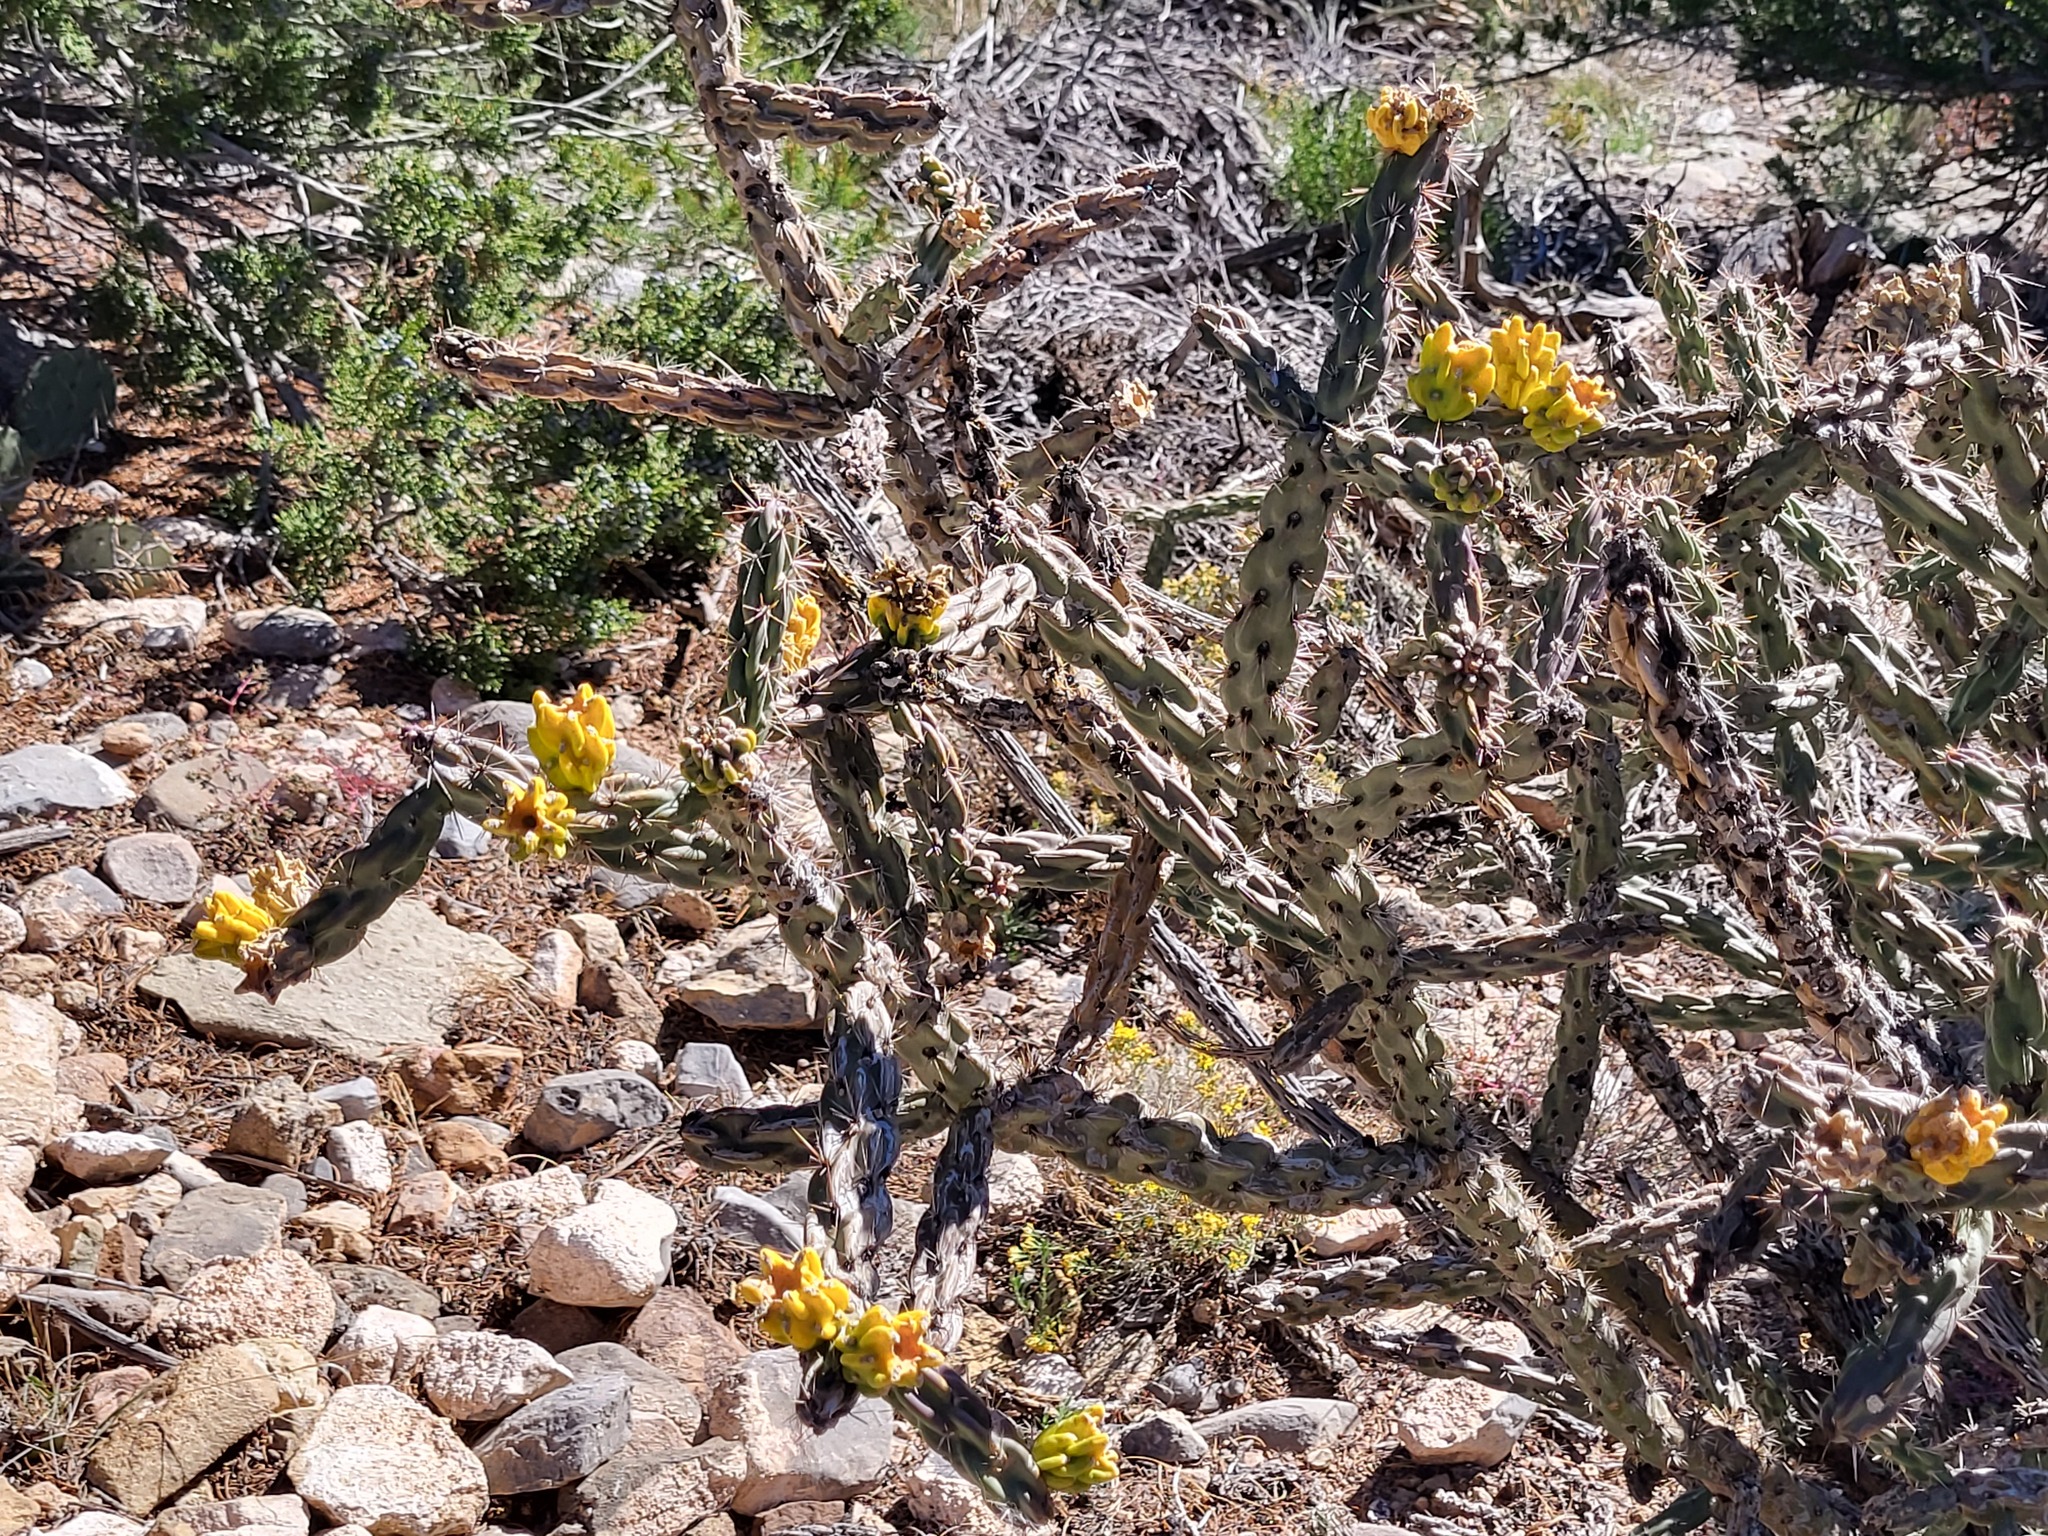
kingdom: Plantae
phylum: Tracheophyta
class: Magnoliopsida
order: Caryophyllales
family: Cactaceae
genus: Cylindropuntia
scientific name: Cylindropuntia imbricata
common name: Candelabrum cactus
